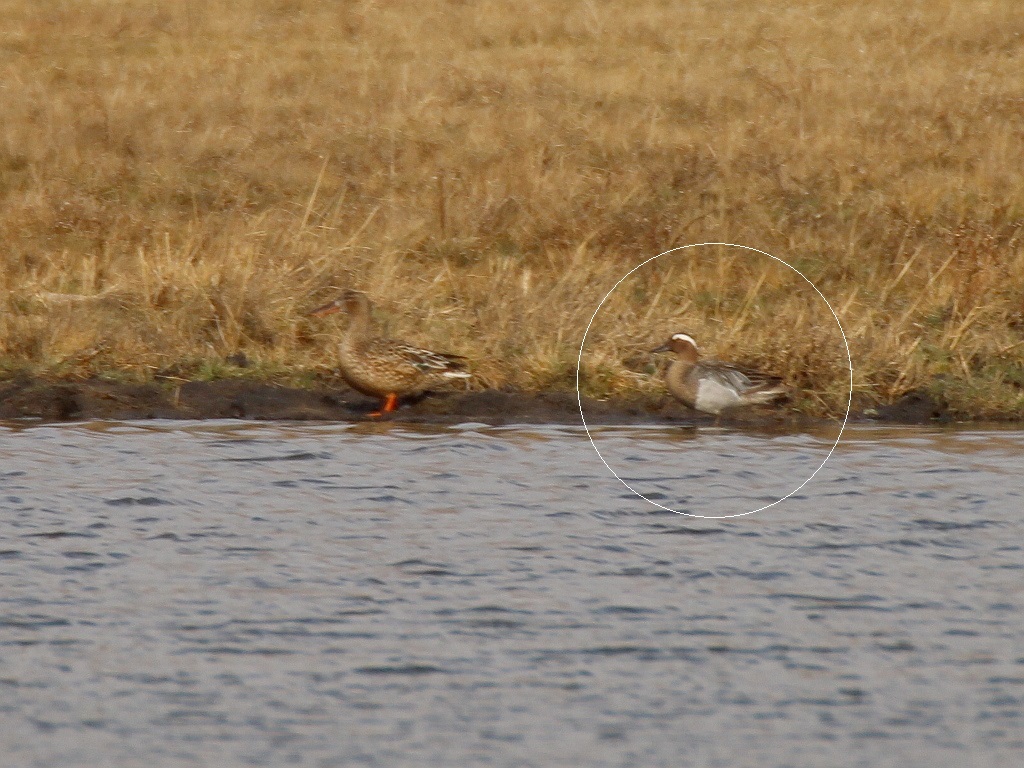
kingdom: Animalia
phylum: Chordata
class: Aves
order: Anseriformes
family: Anatidae
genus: Spatula
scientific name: Spatula querquedula
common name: Garganey
